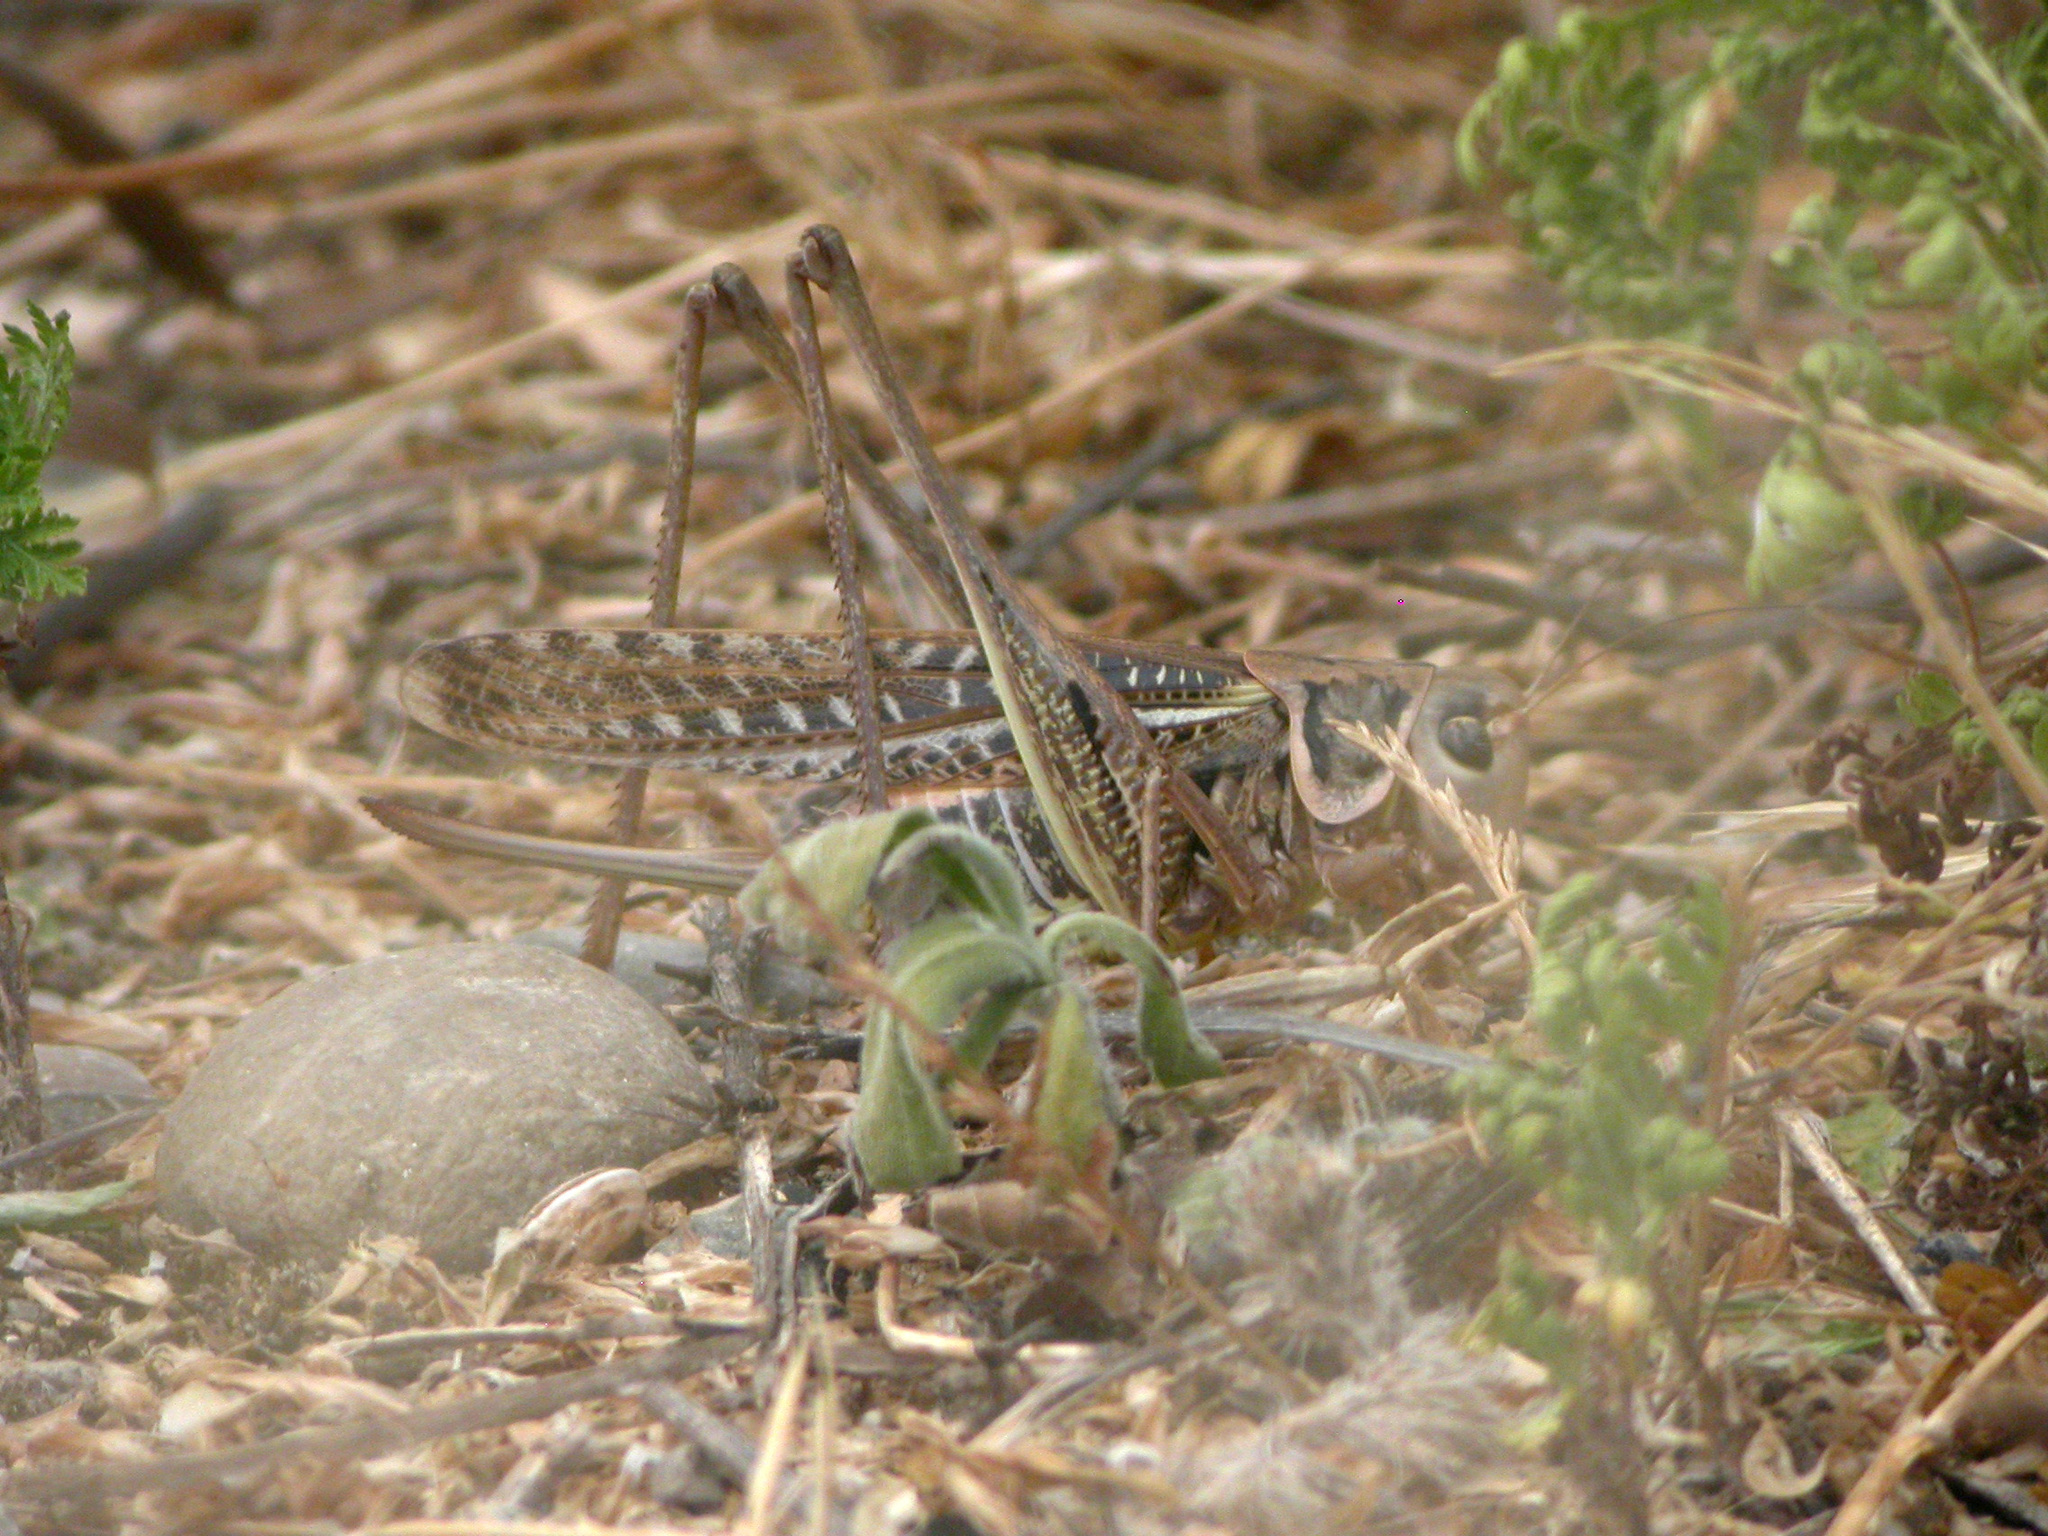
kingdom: Animalia
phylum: Arthropoda
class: Insecta
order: Orthoptera
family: Tettigoniidae
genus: Decticus
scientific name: Decticus albifrons
